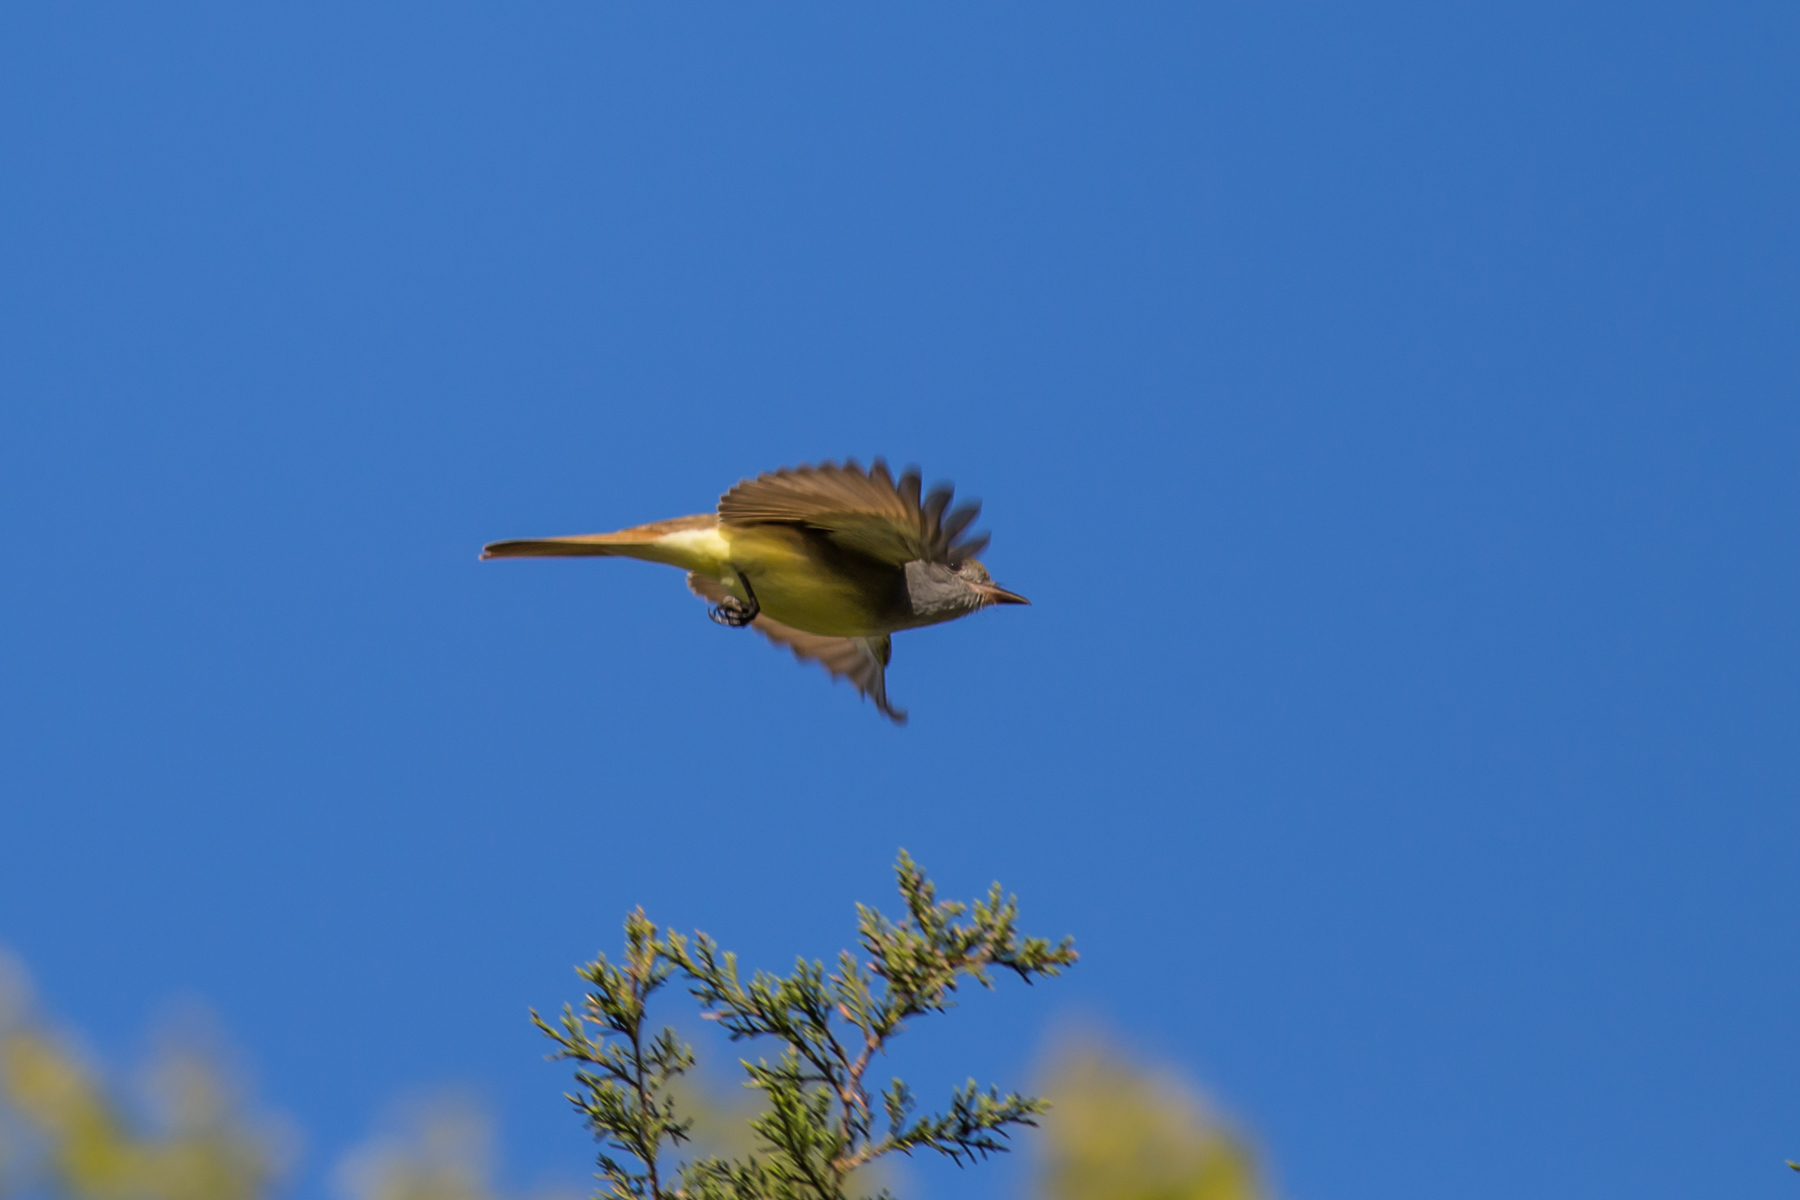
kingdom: Animalia
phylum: Chordata
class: Aves
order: Passeriformes
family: Tyrannidae
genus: Myiarchus
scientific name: Myiarchus crinitus
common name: Great crested flycatcher
